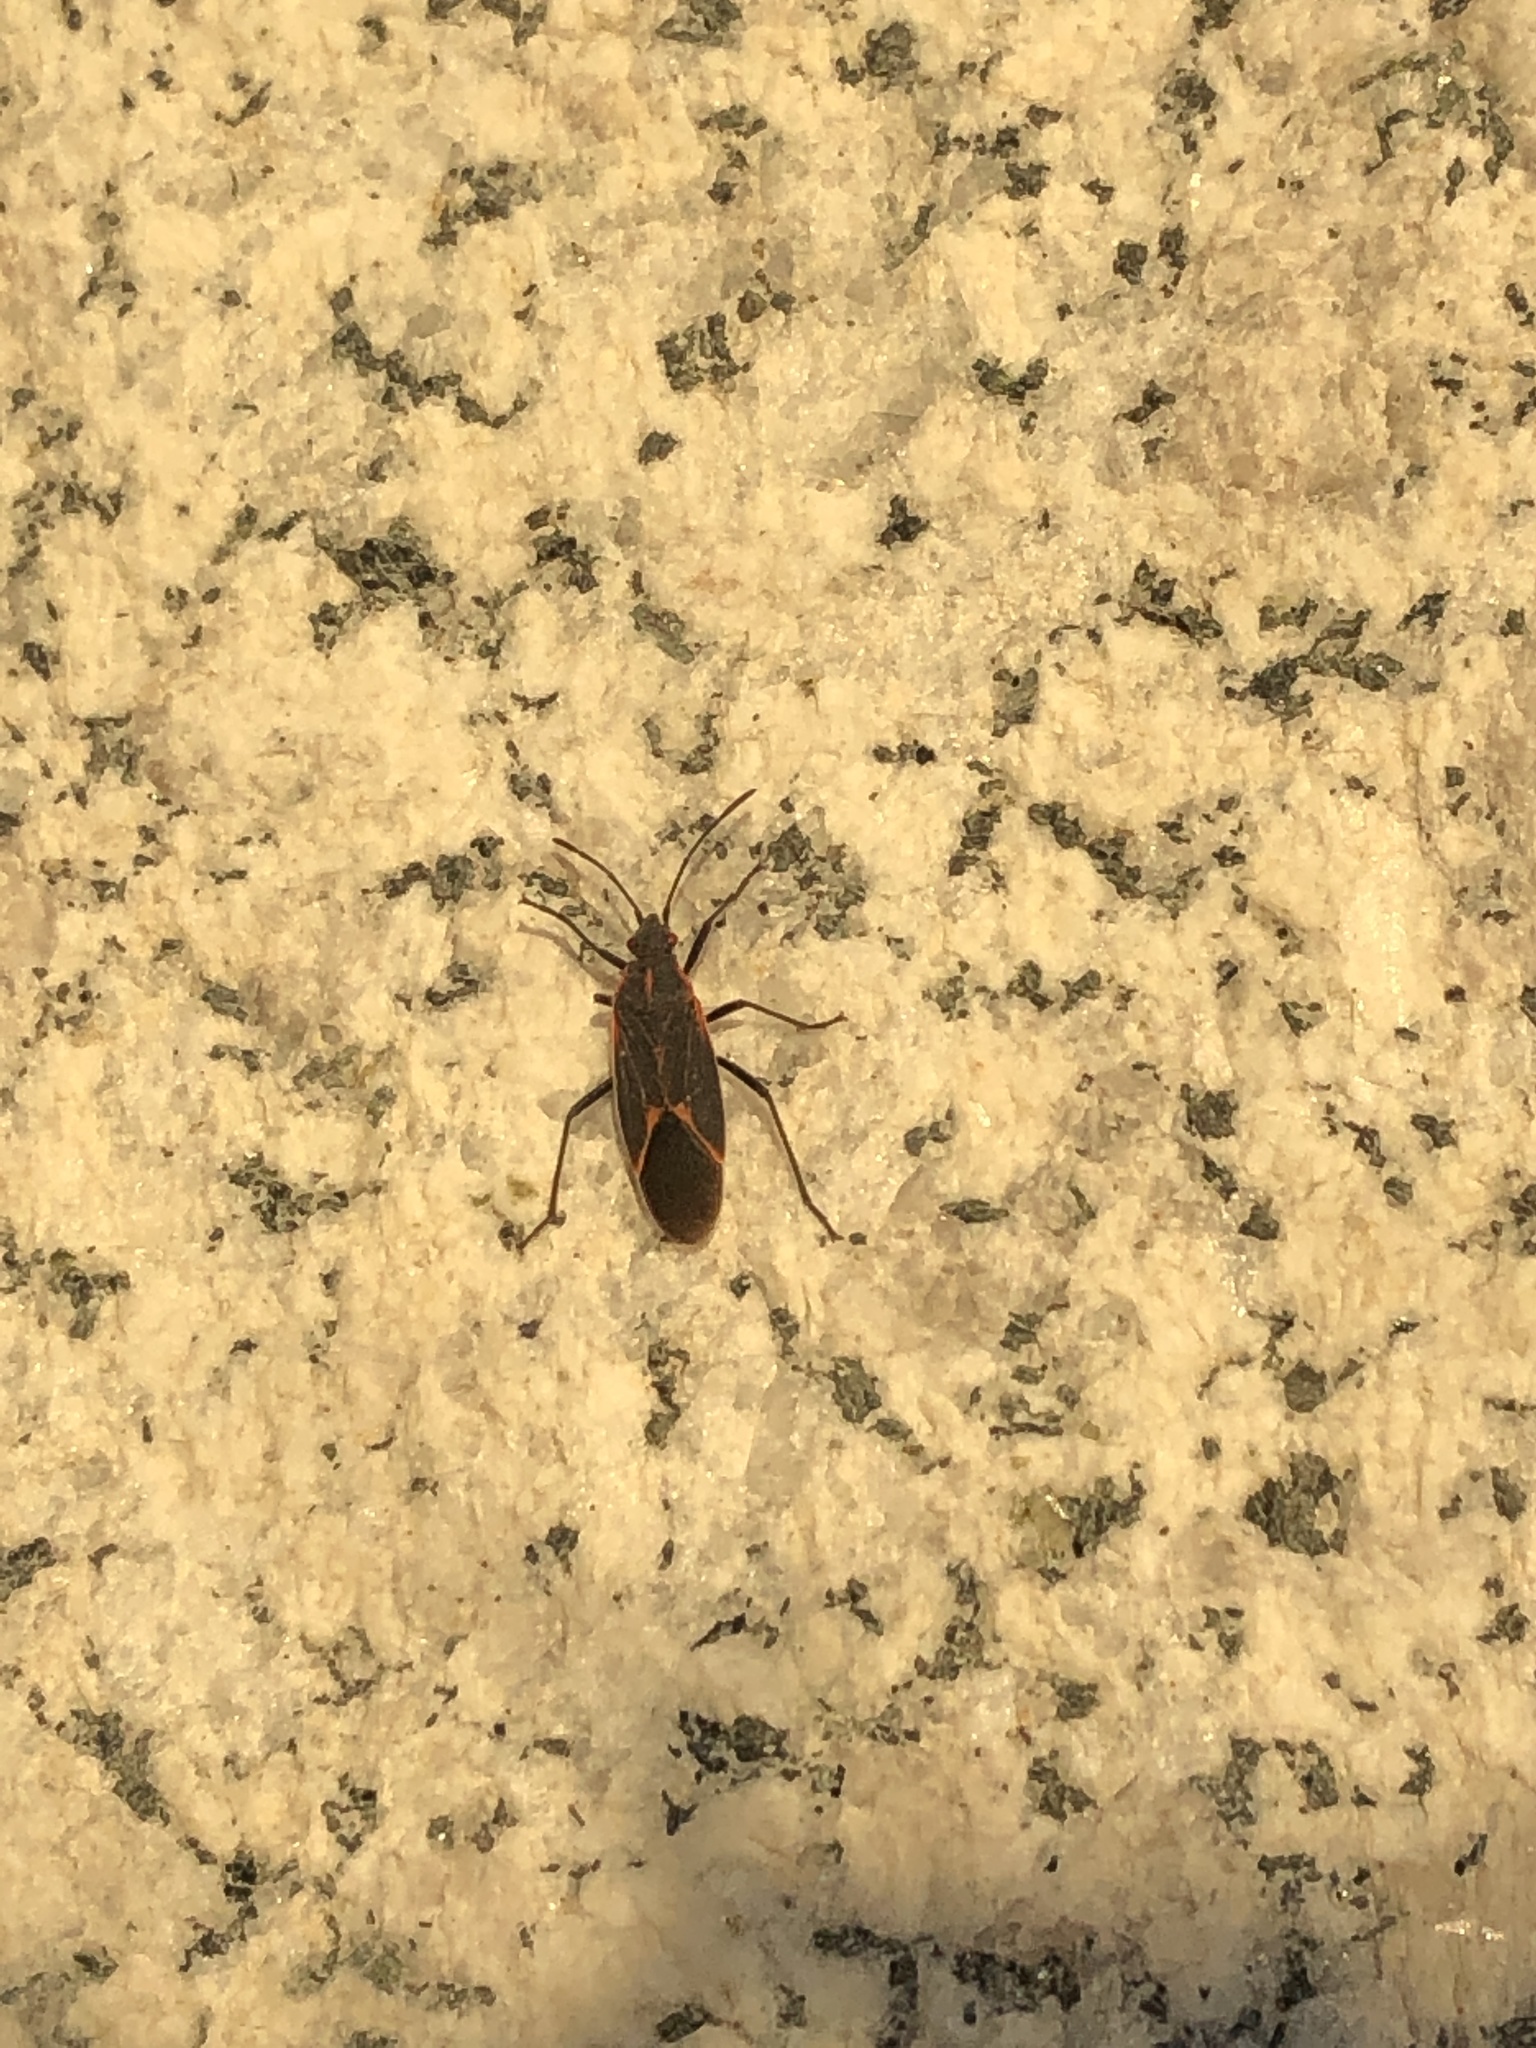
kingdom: Animalia
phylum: Arthropoda
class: Insecta
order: Hemiptera
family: Rhopalidae
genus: Boisea
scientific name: Boisea trivittata
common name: Boxelder bug
